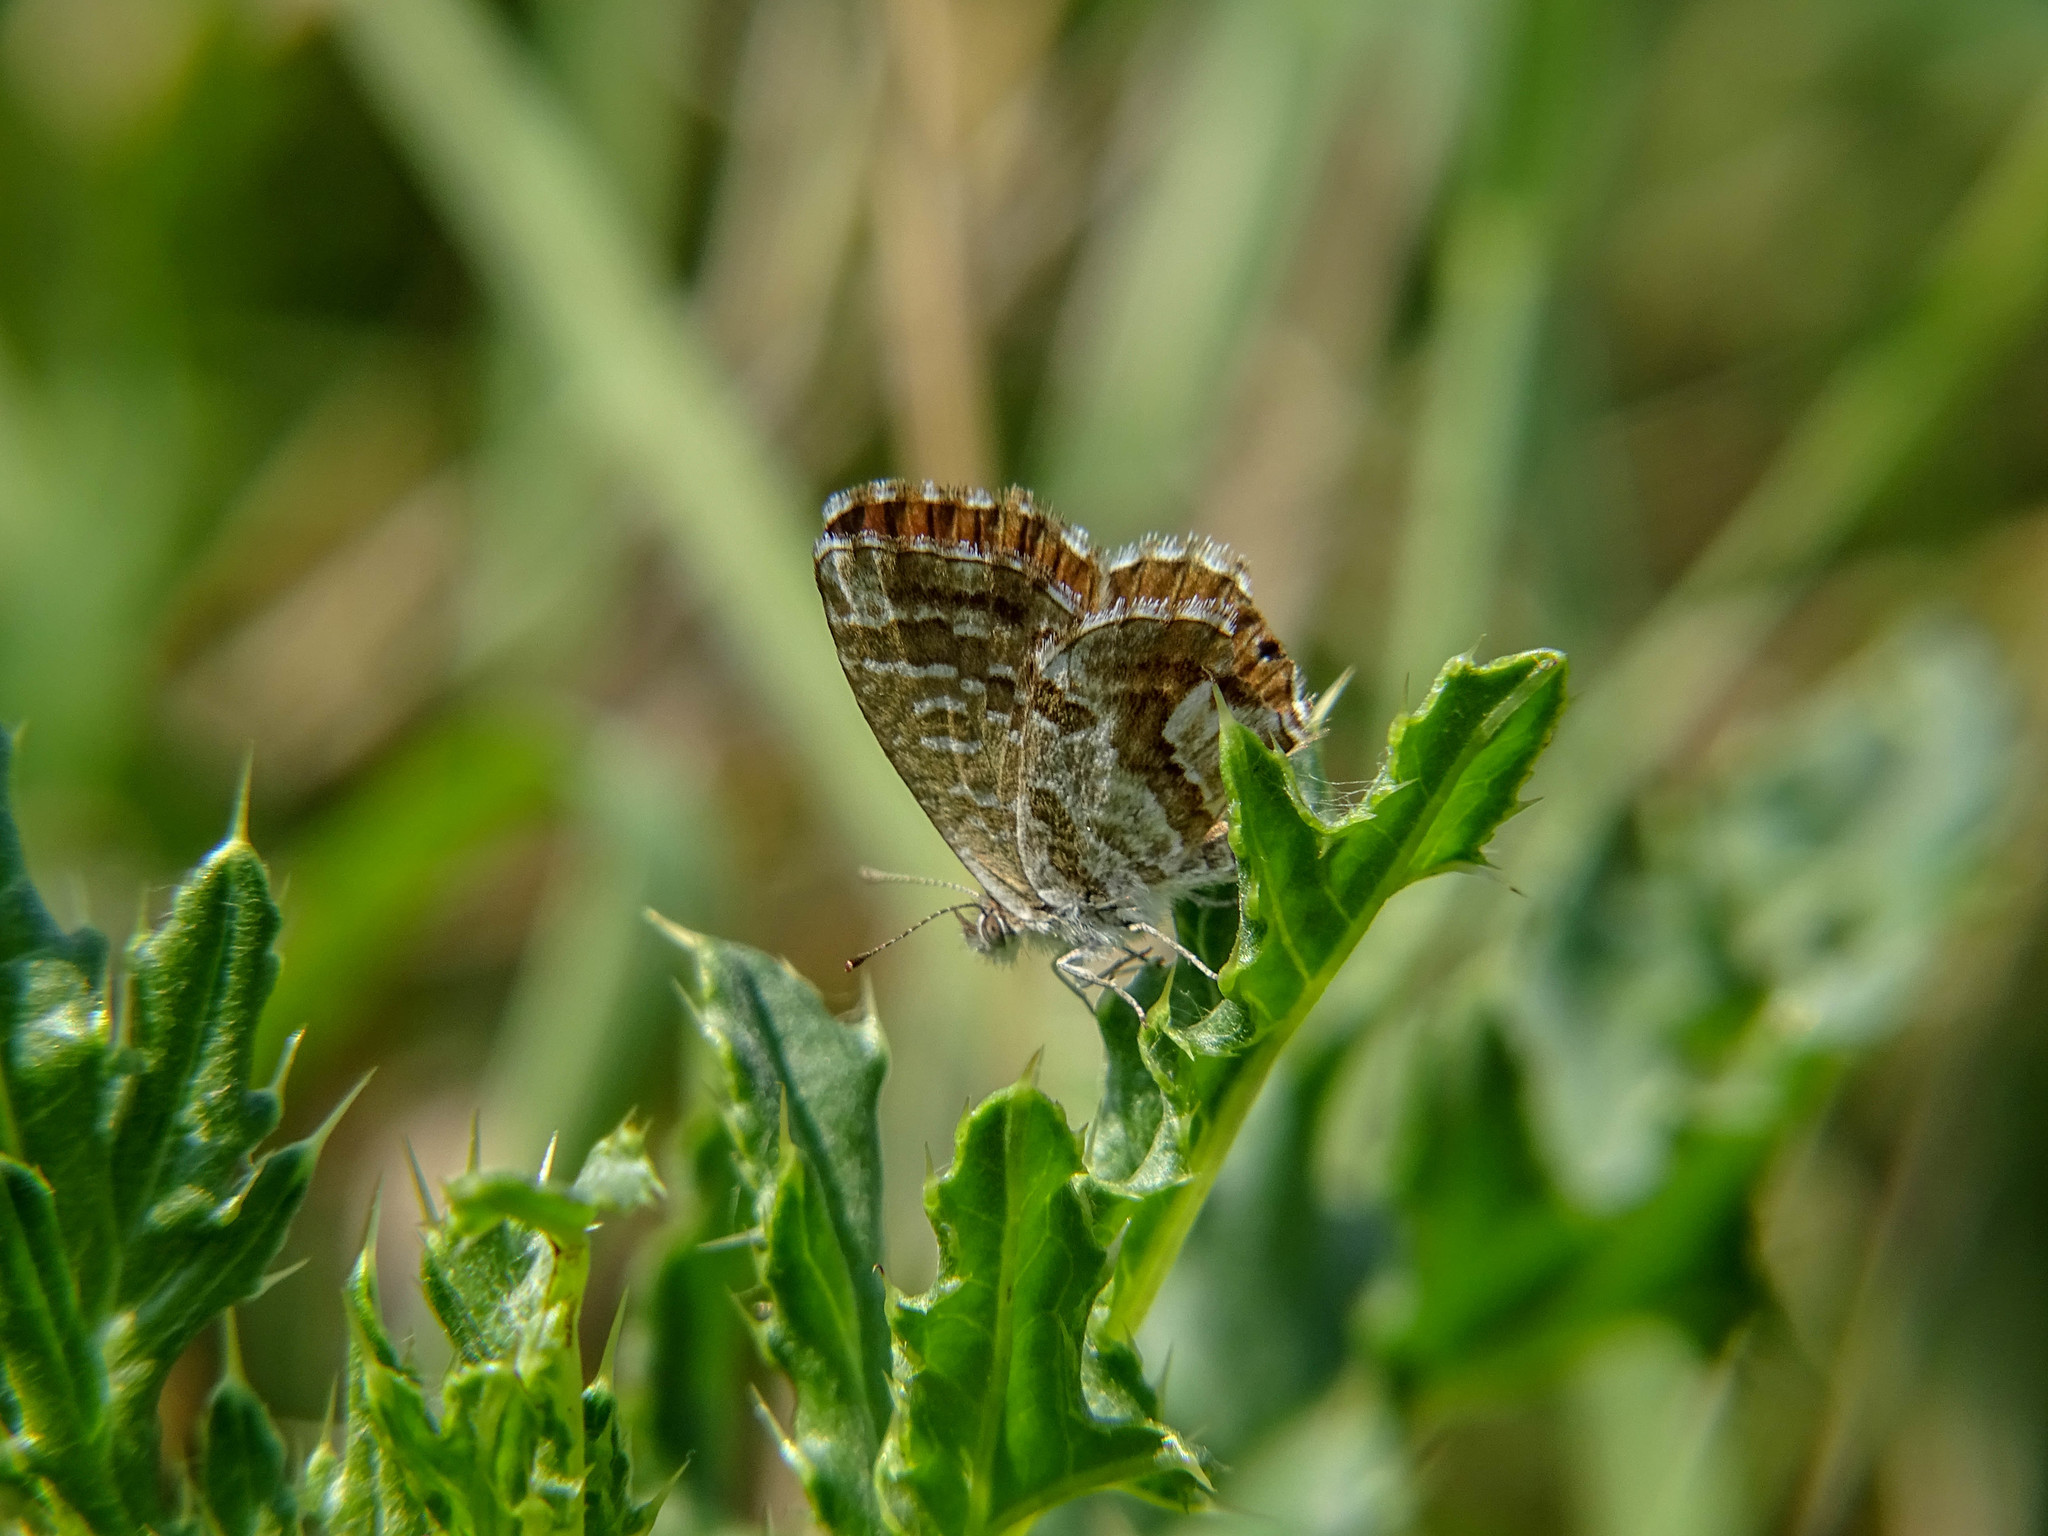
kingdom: Animalia
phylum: Arthropoda
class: Insecta
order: Lepidoptera
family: Lycaenidae
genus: Cacyreus
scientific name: Cacyreus marshalli
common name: Geranium bronze
